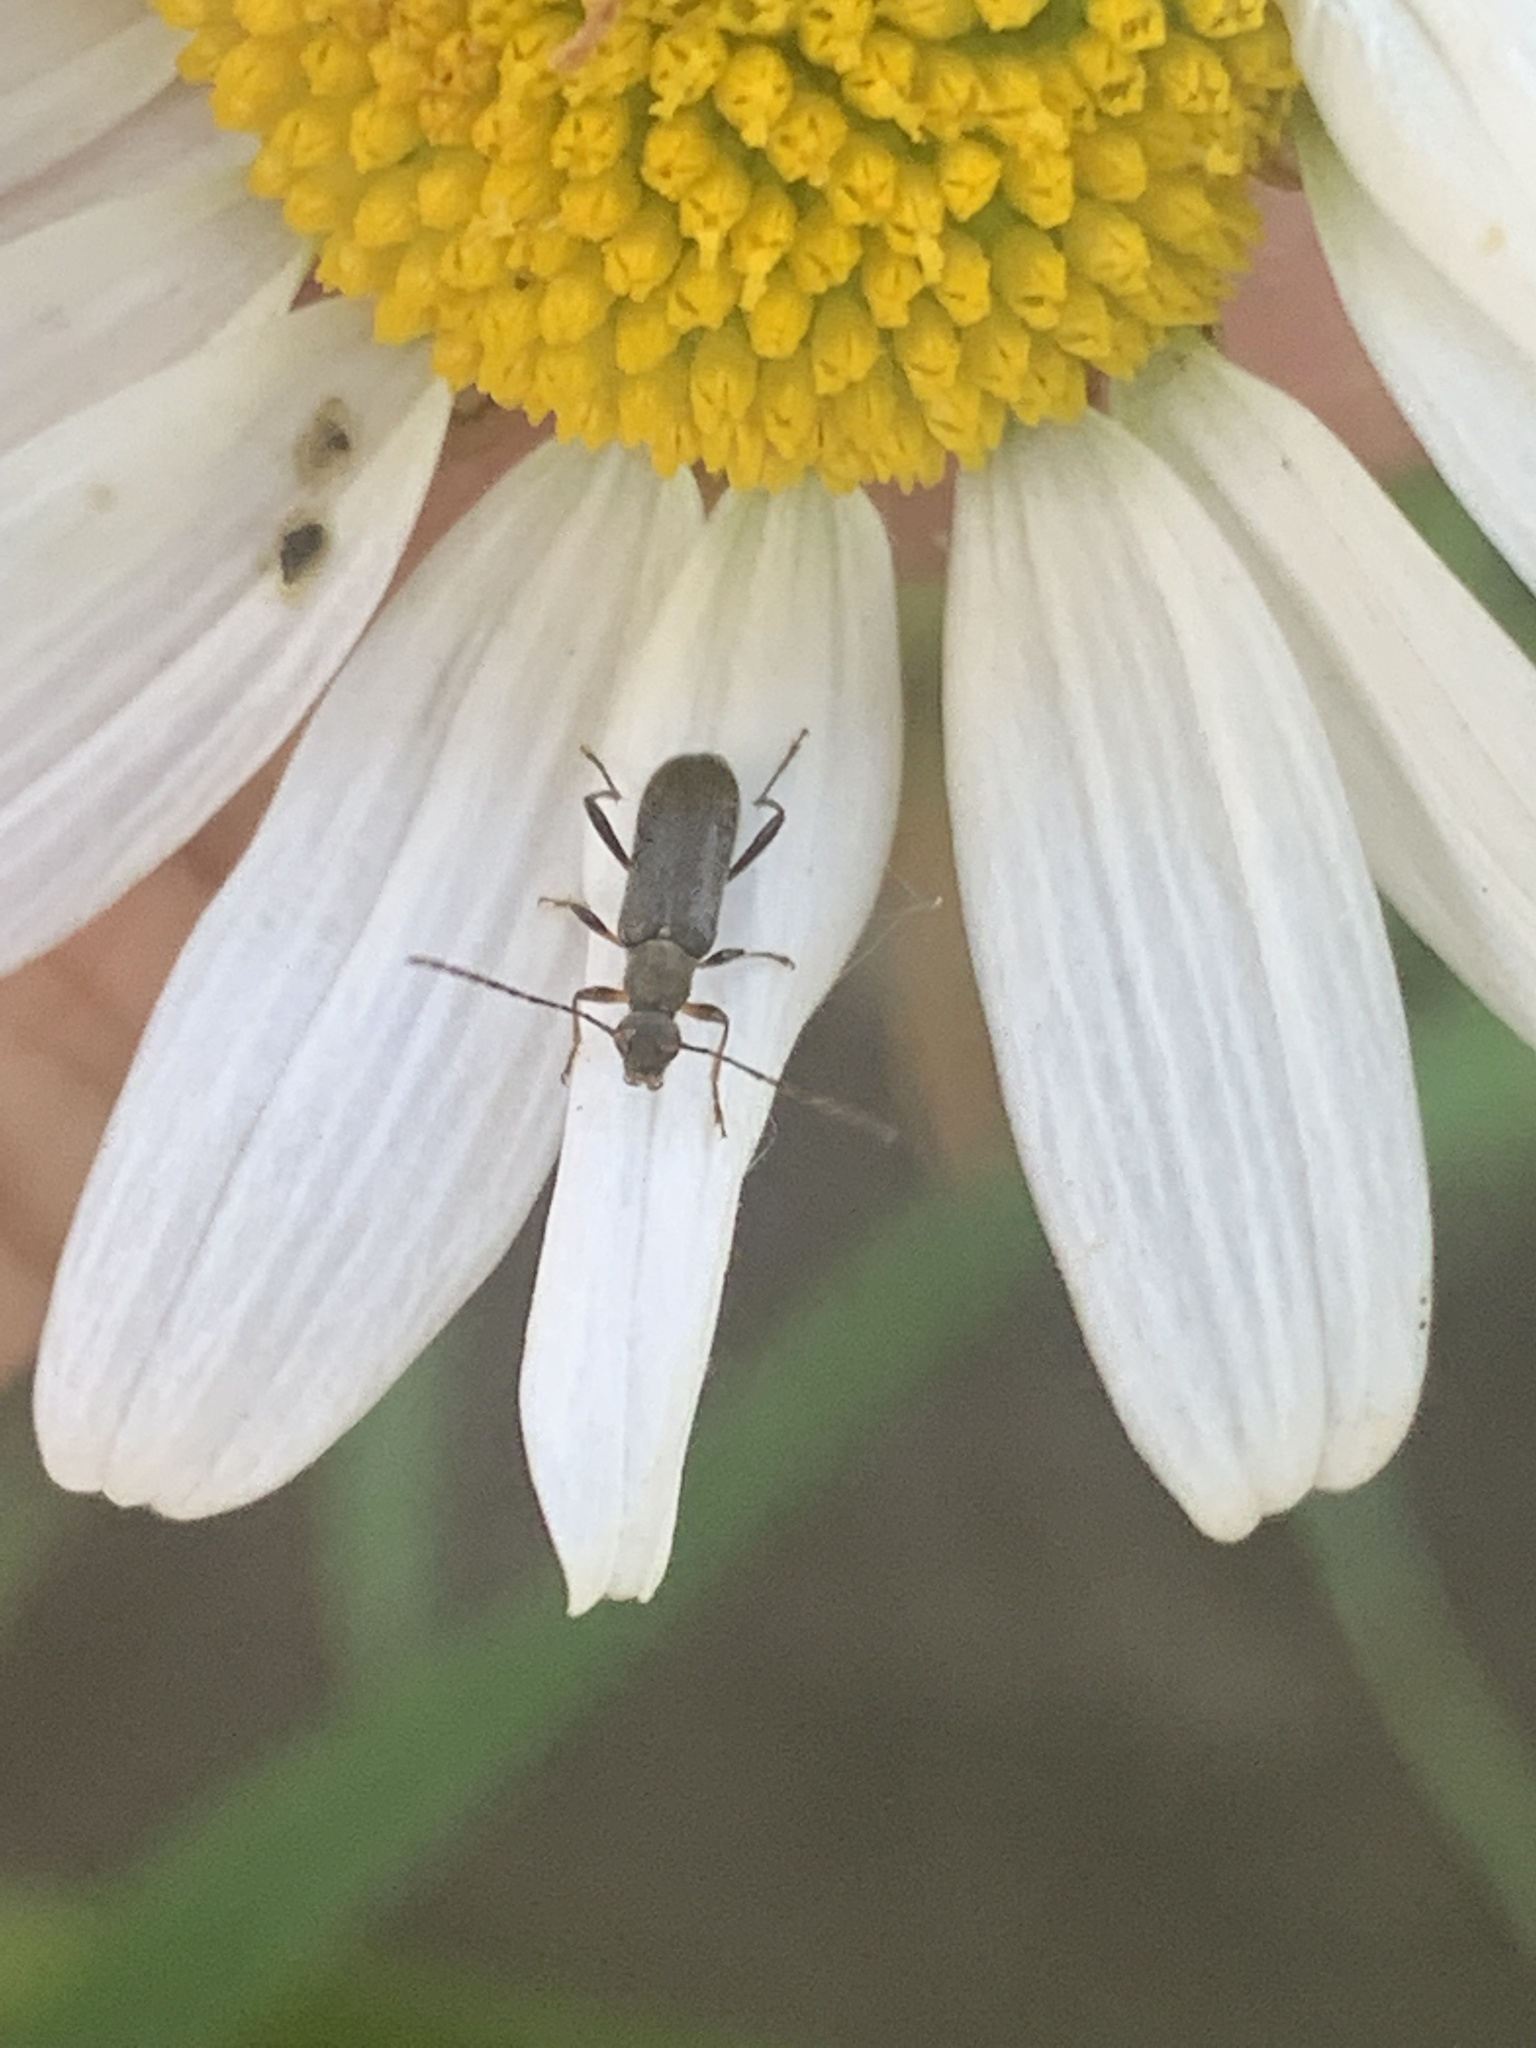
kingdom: Animalia
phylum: Arthropoda
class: Insecta
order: Coleoptera
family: Cerambycidae
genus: Grammoptera
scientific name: Grammoptera ruficornis
